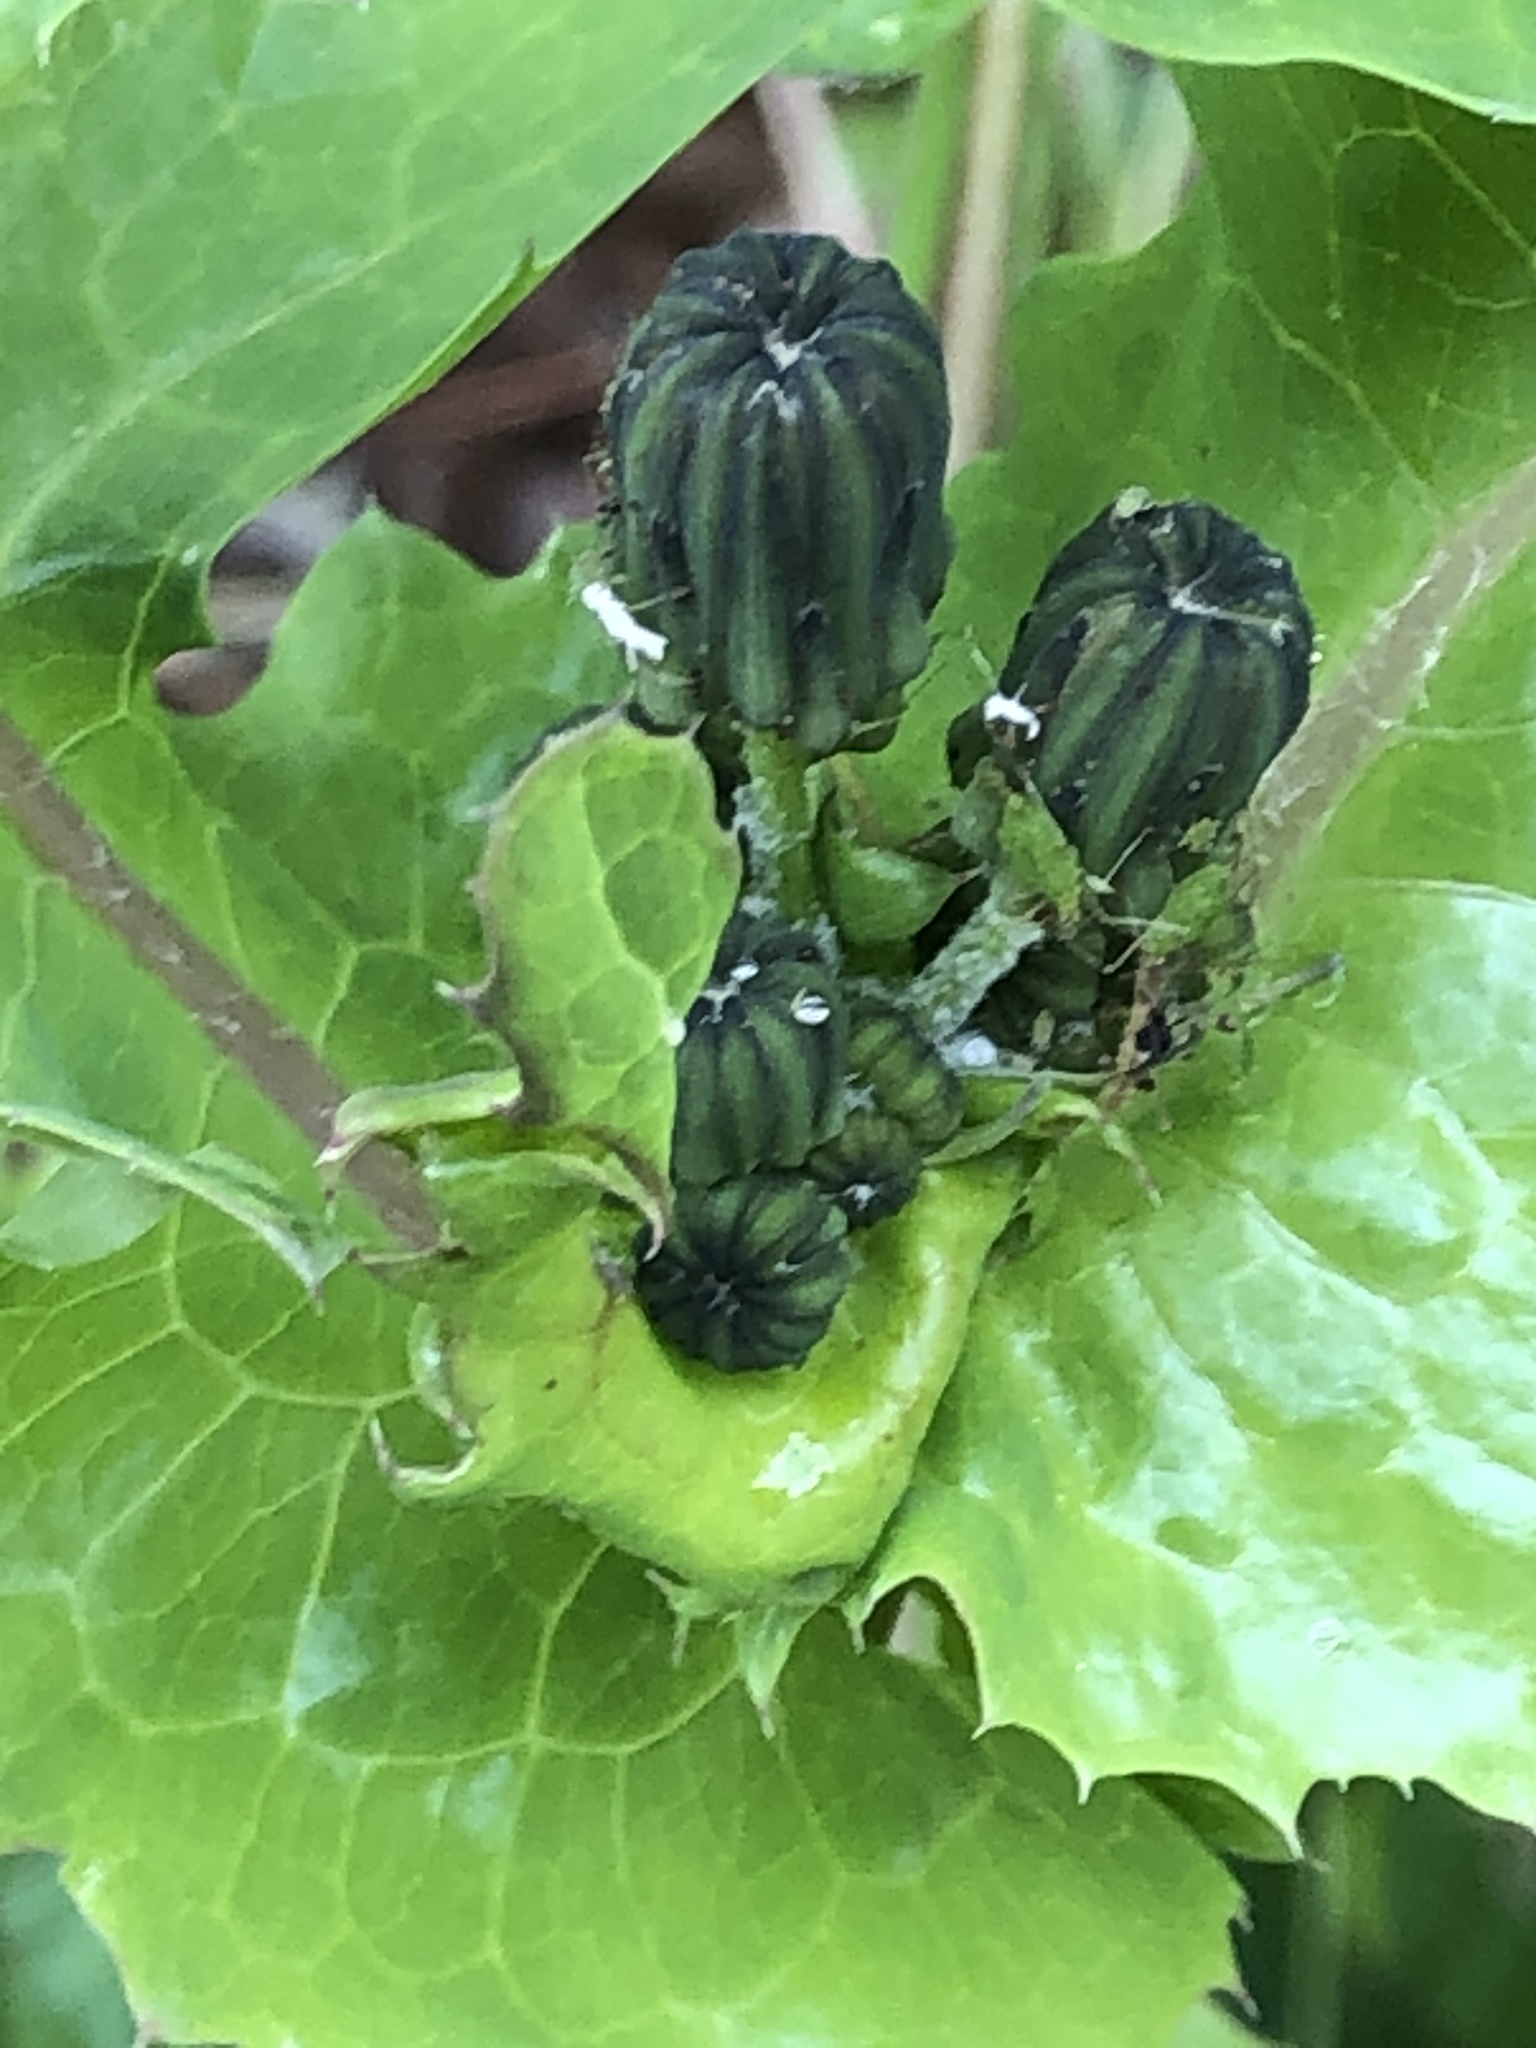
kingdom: Plantae
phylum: Tracheophyta
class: Magnoliopsida
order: Asterales
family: Asteraceae
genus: Sonchus
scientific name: Sonchus oleraceus
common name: Common sowthistle
